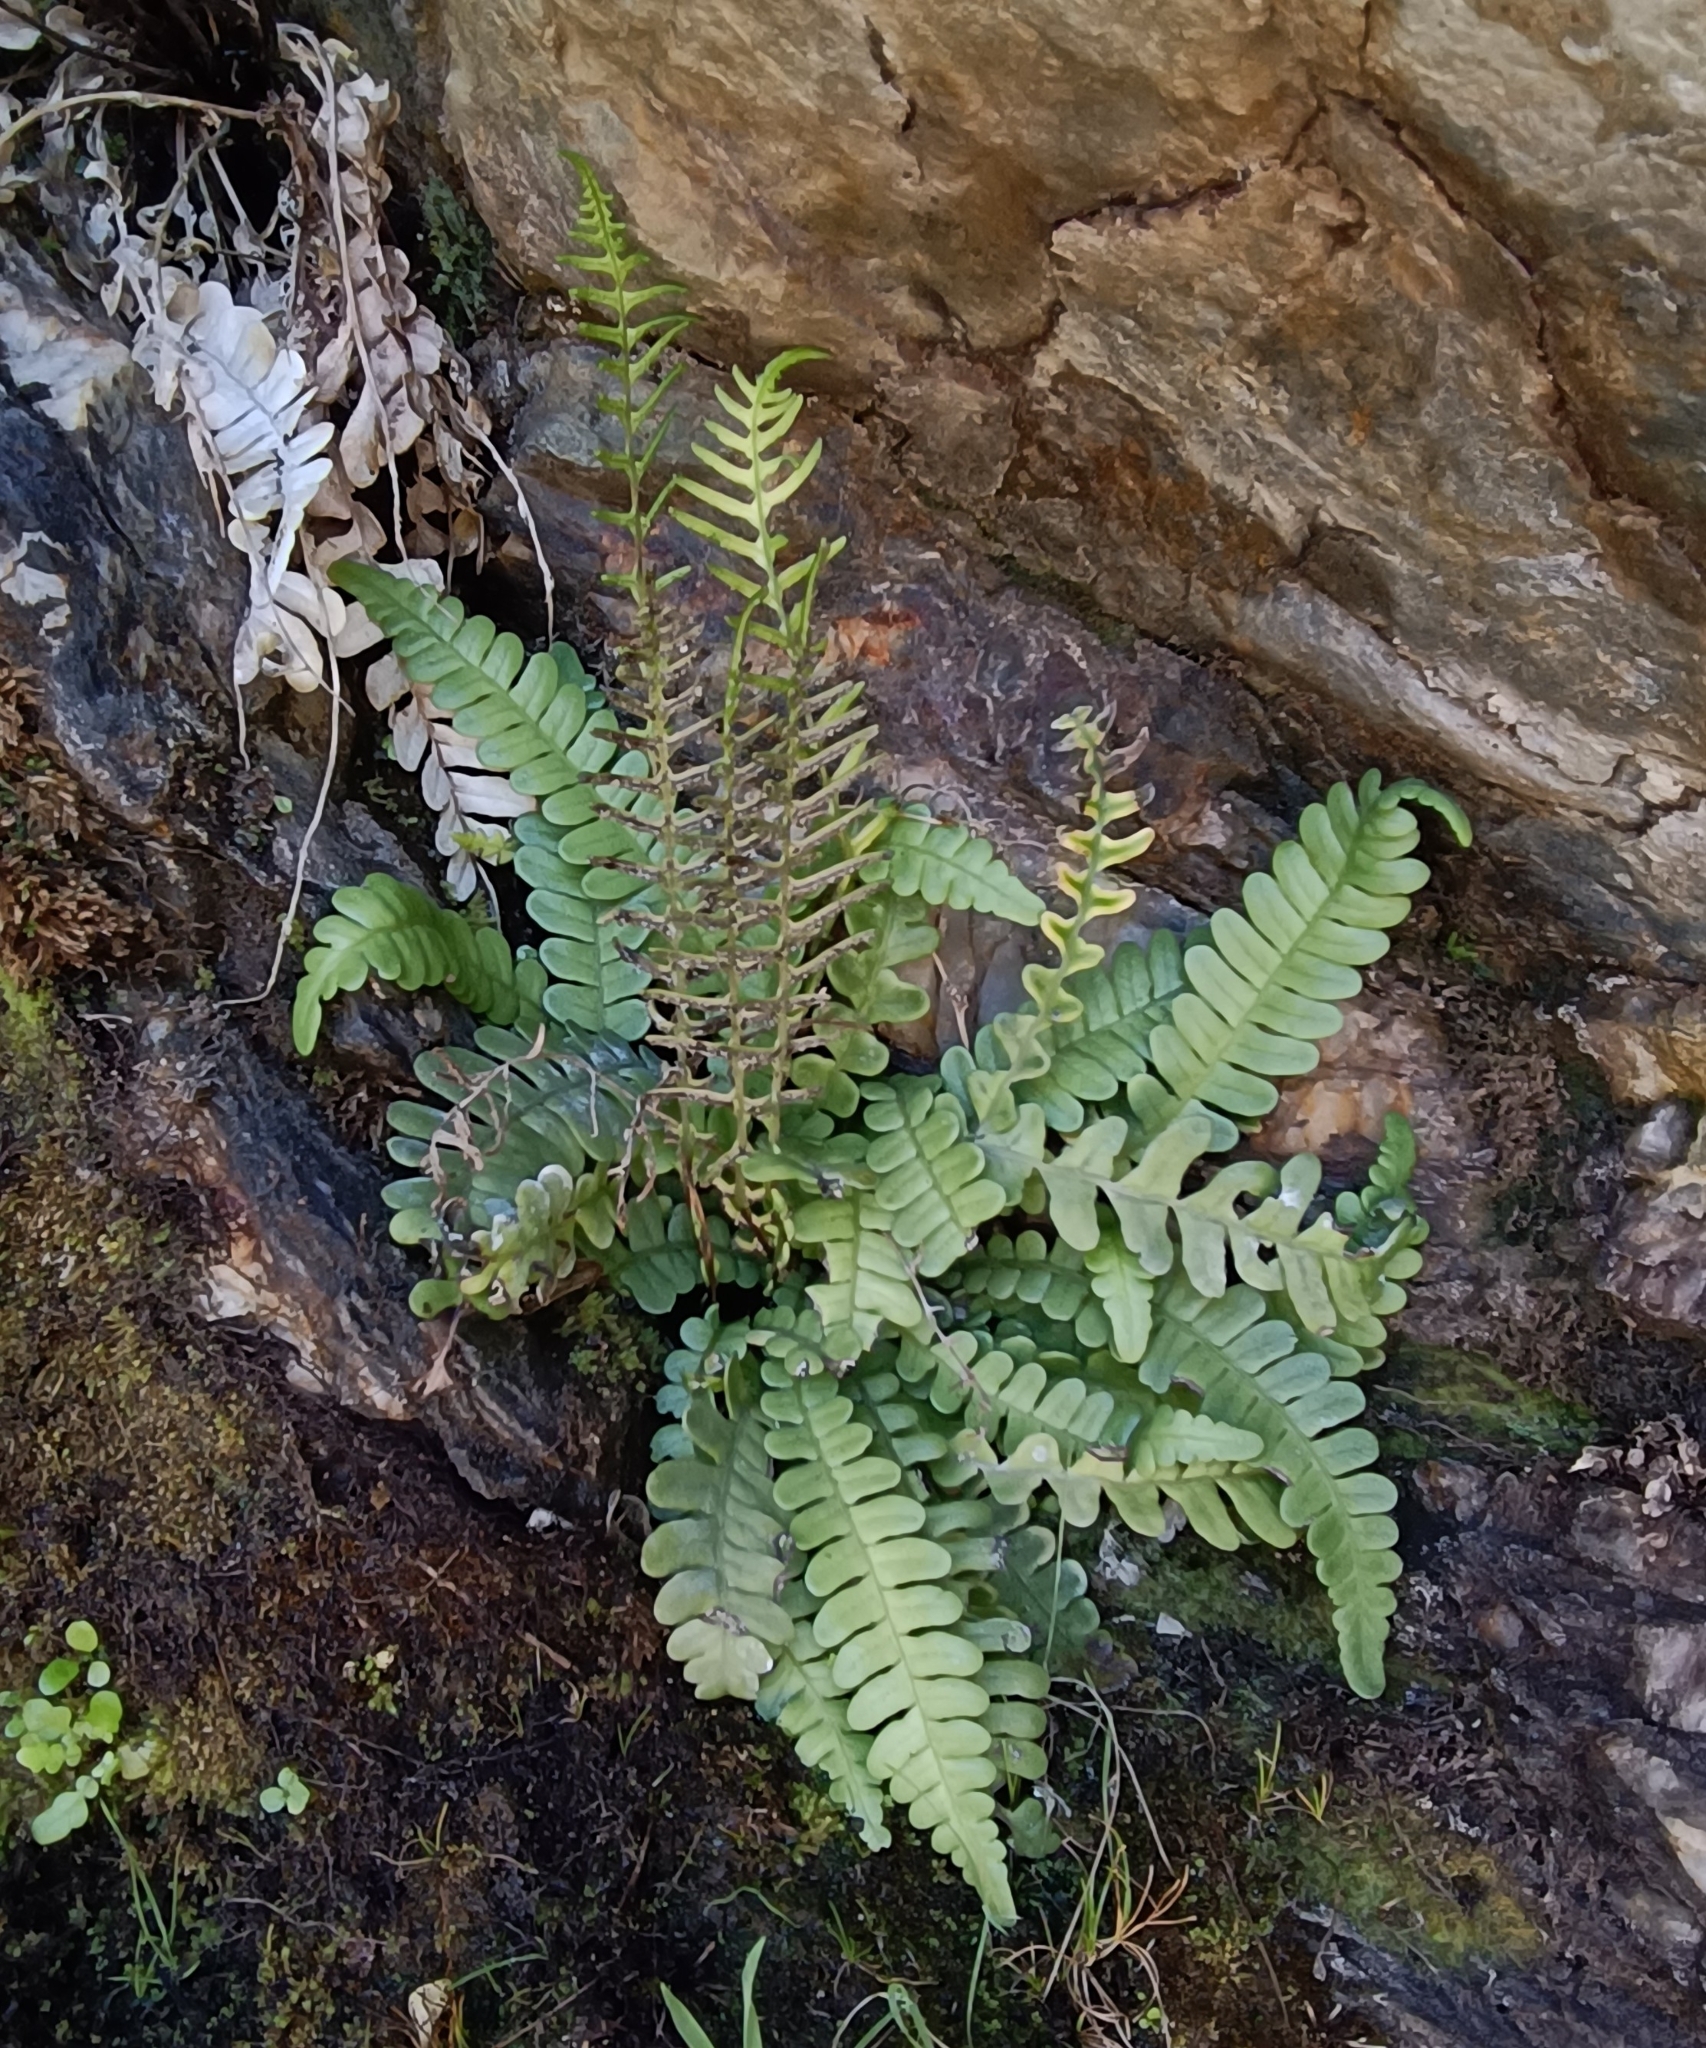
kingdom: Plantae
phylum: Tracheophyta
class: Polypodiopsida
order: Polypodiales
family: Blechnaceae
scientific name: Blechnaceae
